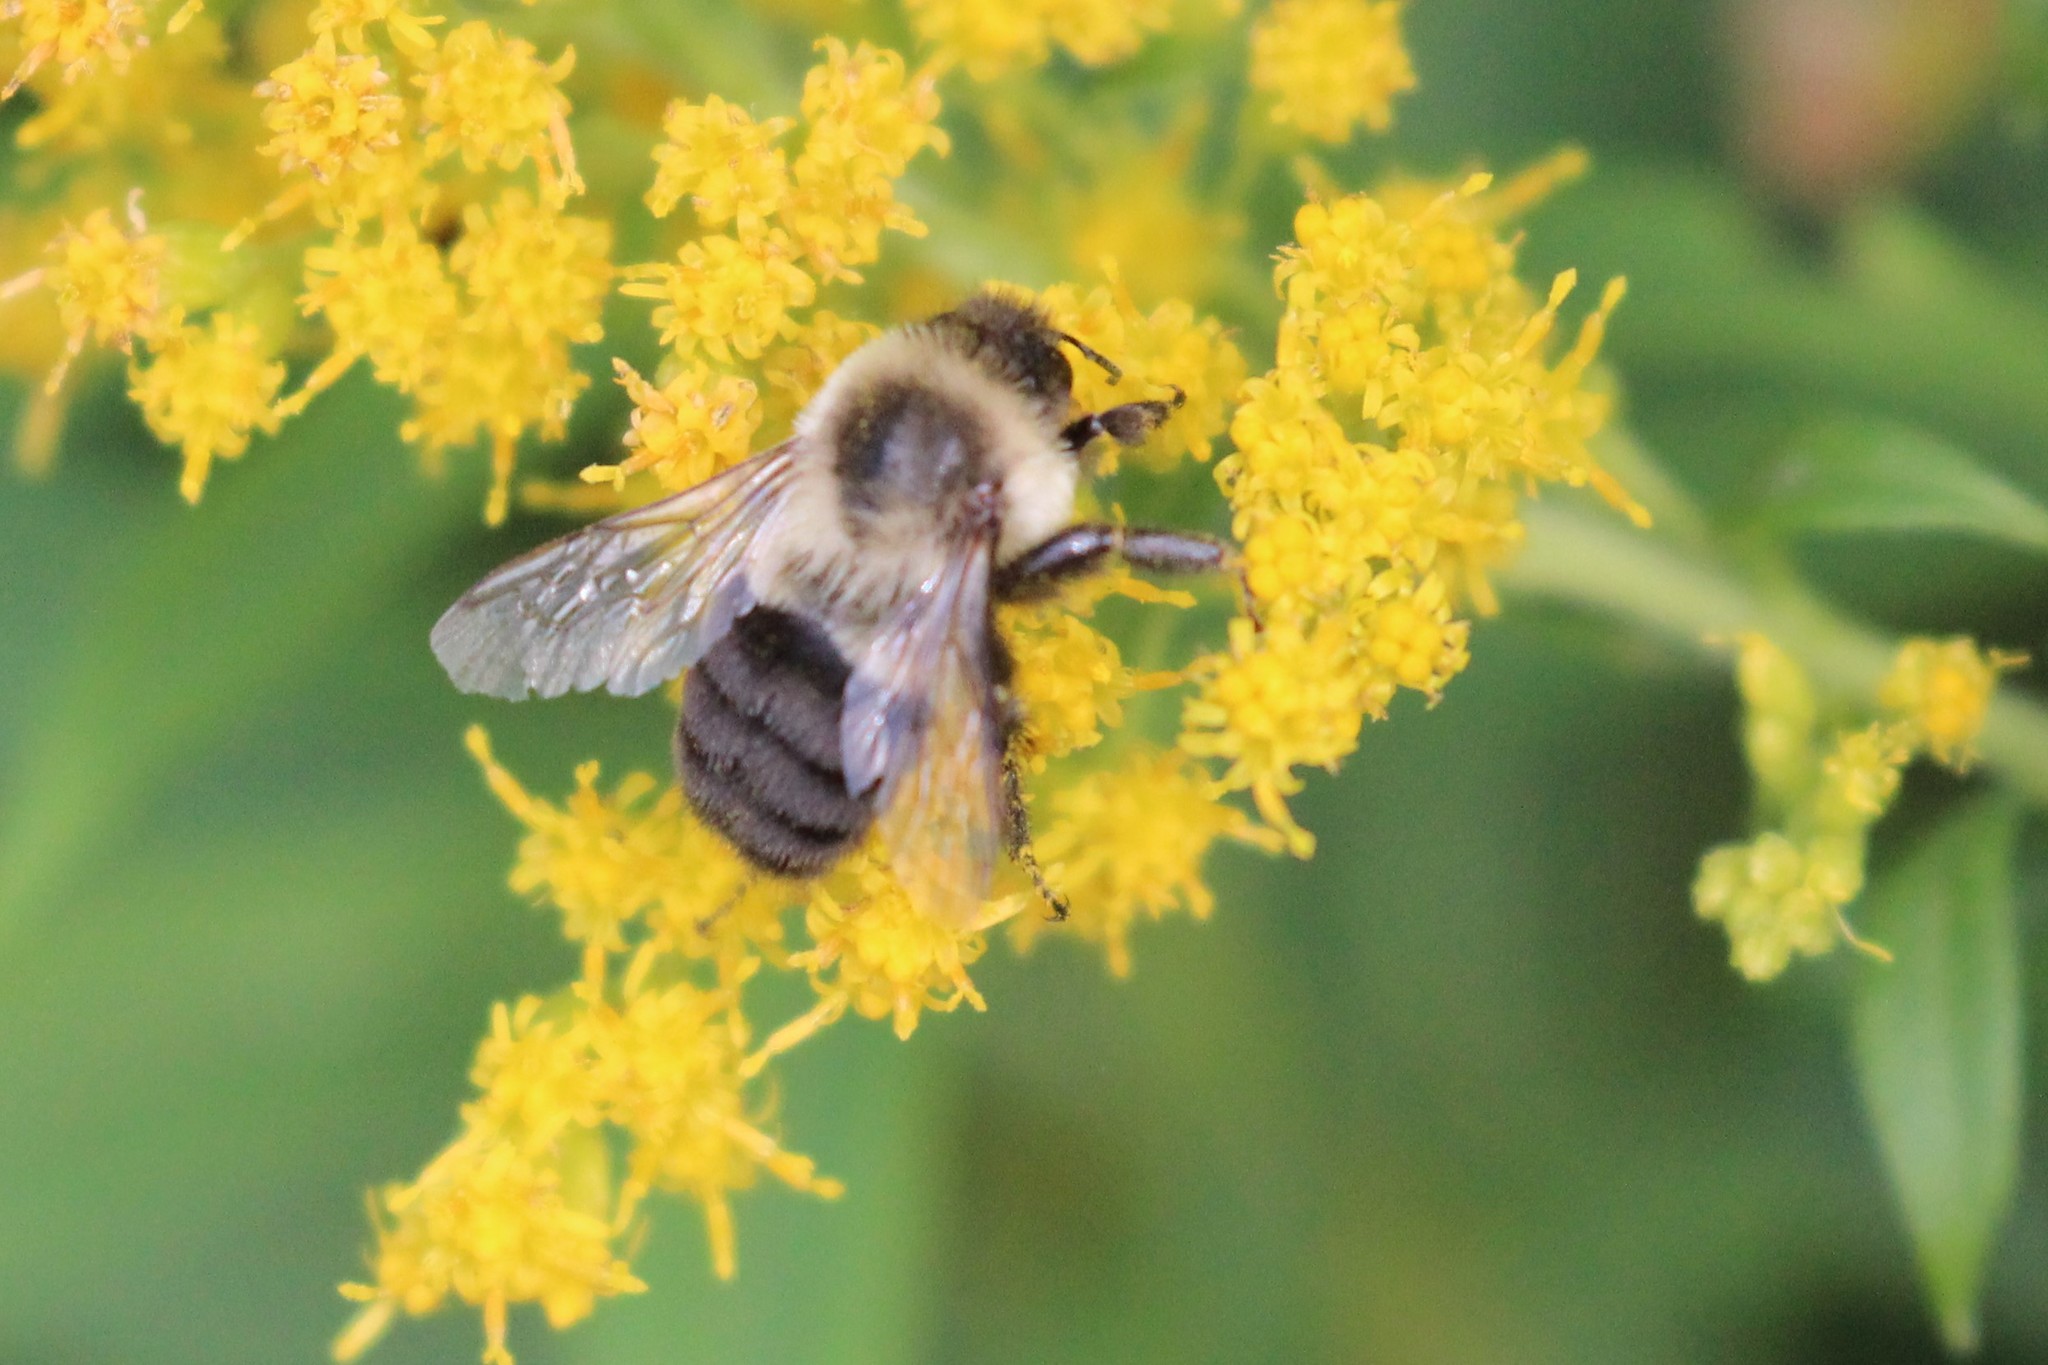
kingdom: Animalia
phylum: Arthropoda
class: Insecta
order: Hymenoptera
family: Apidae
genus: Bombus
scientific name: Bombus impatiens
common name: Common eastern bumble bee
